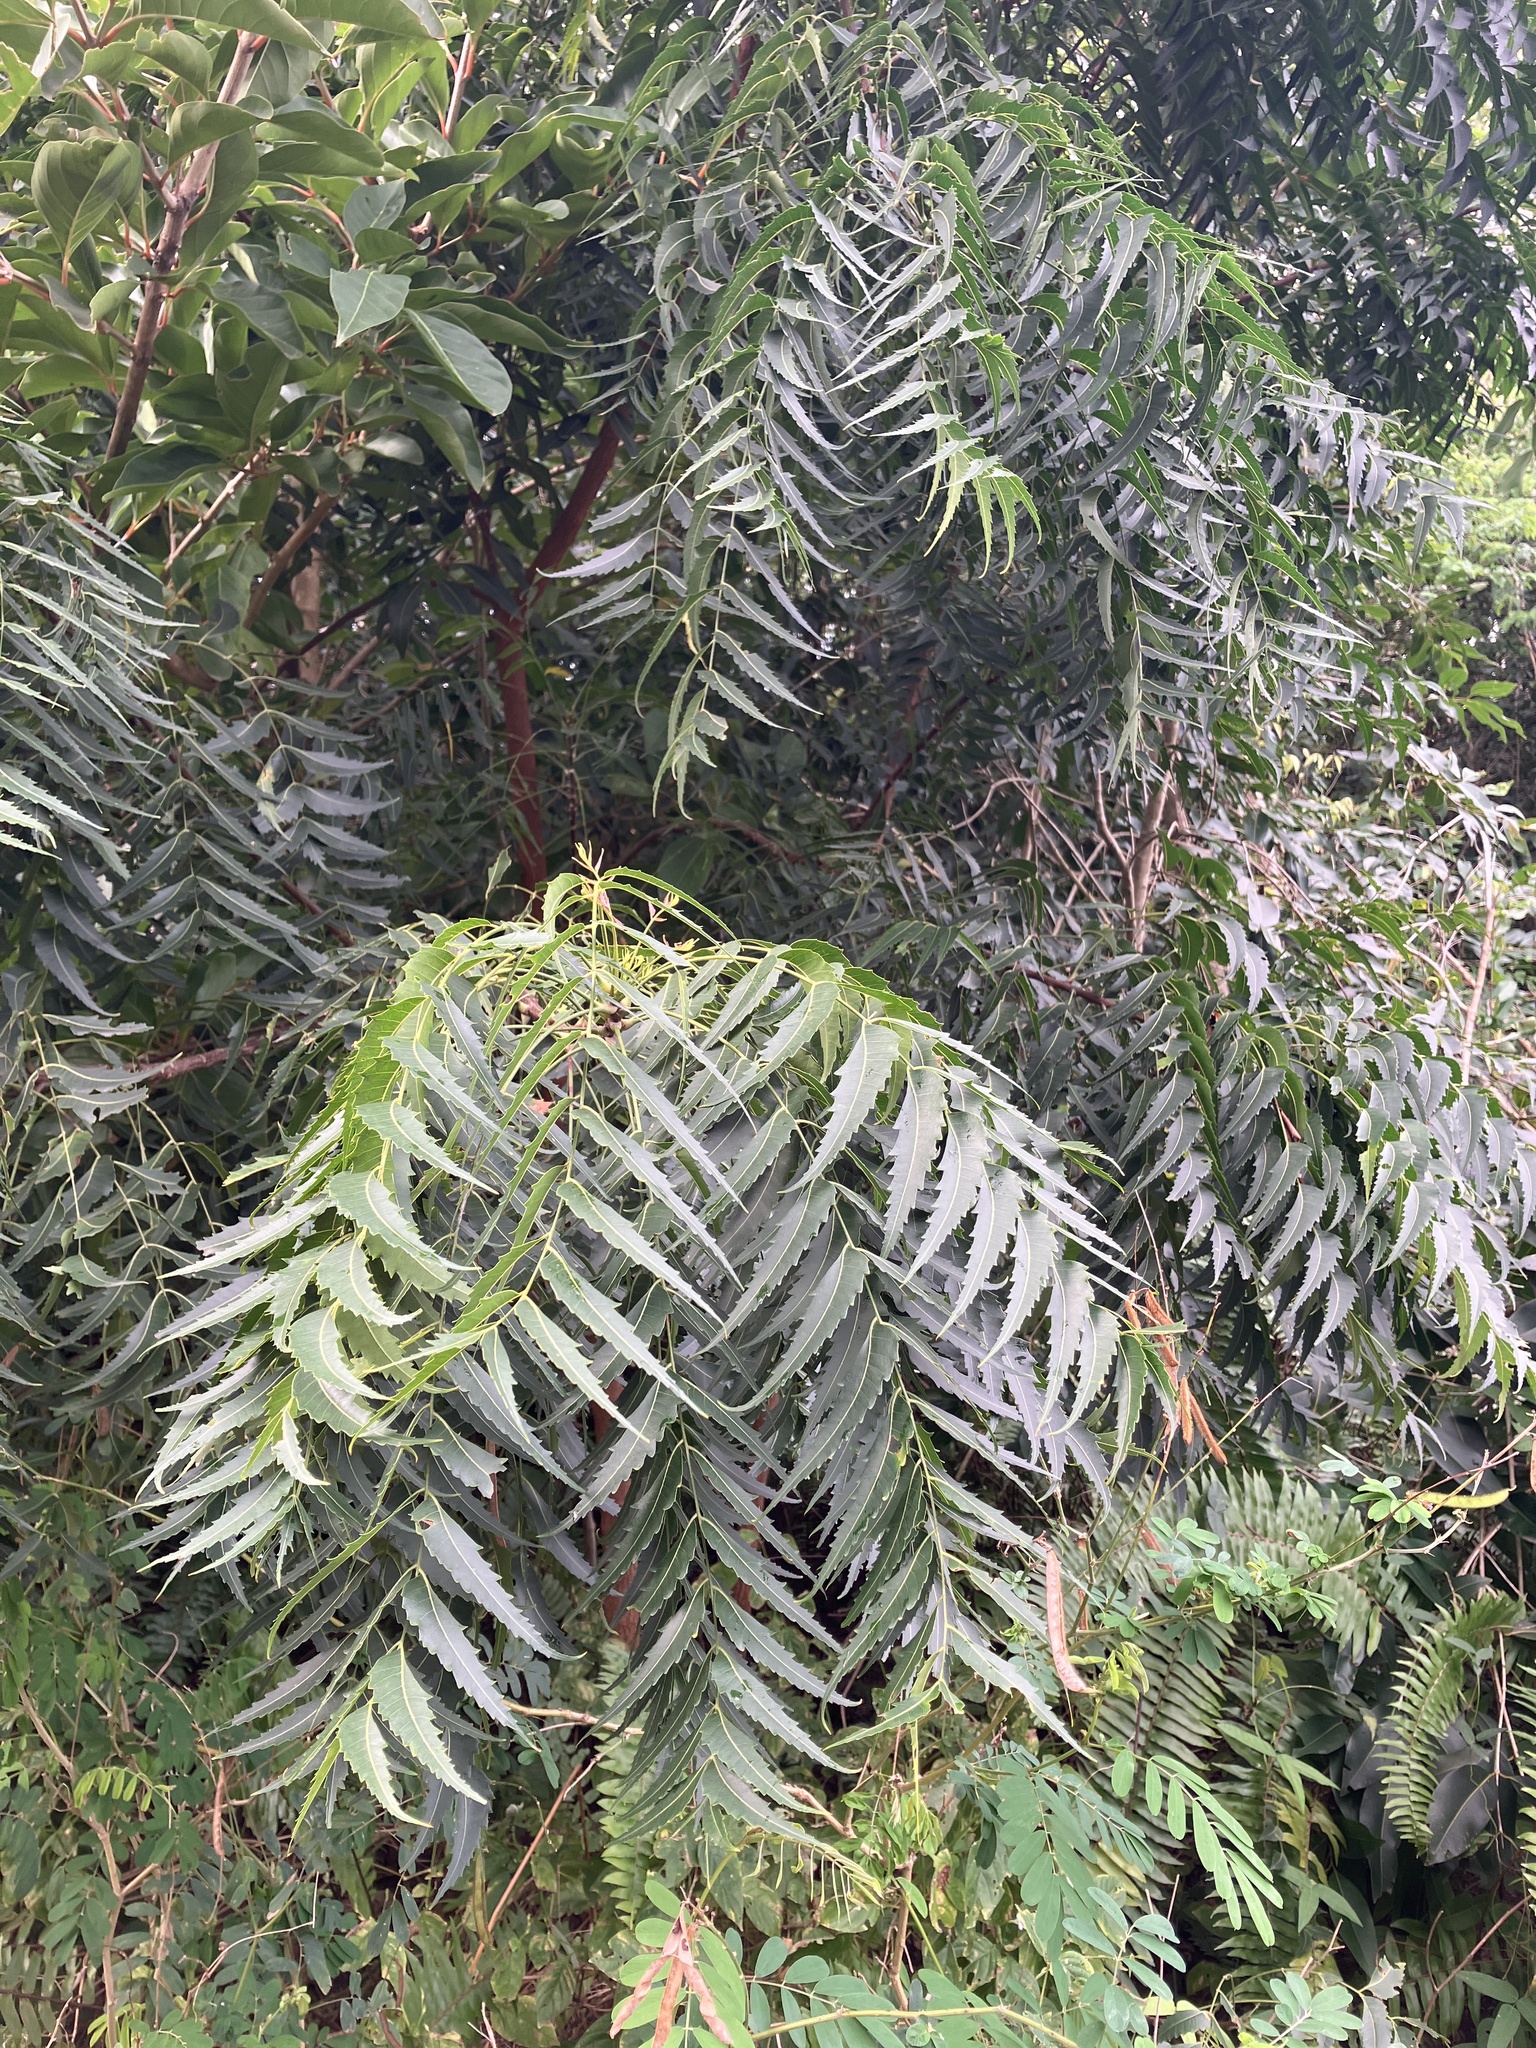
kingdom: Plantae
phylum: Tracheophyta
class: Magnoliopsida
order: Sapindales
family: Meliaceae
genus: Azadirachta
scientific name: Azadirachta indica
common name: Neem
